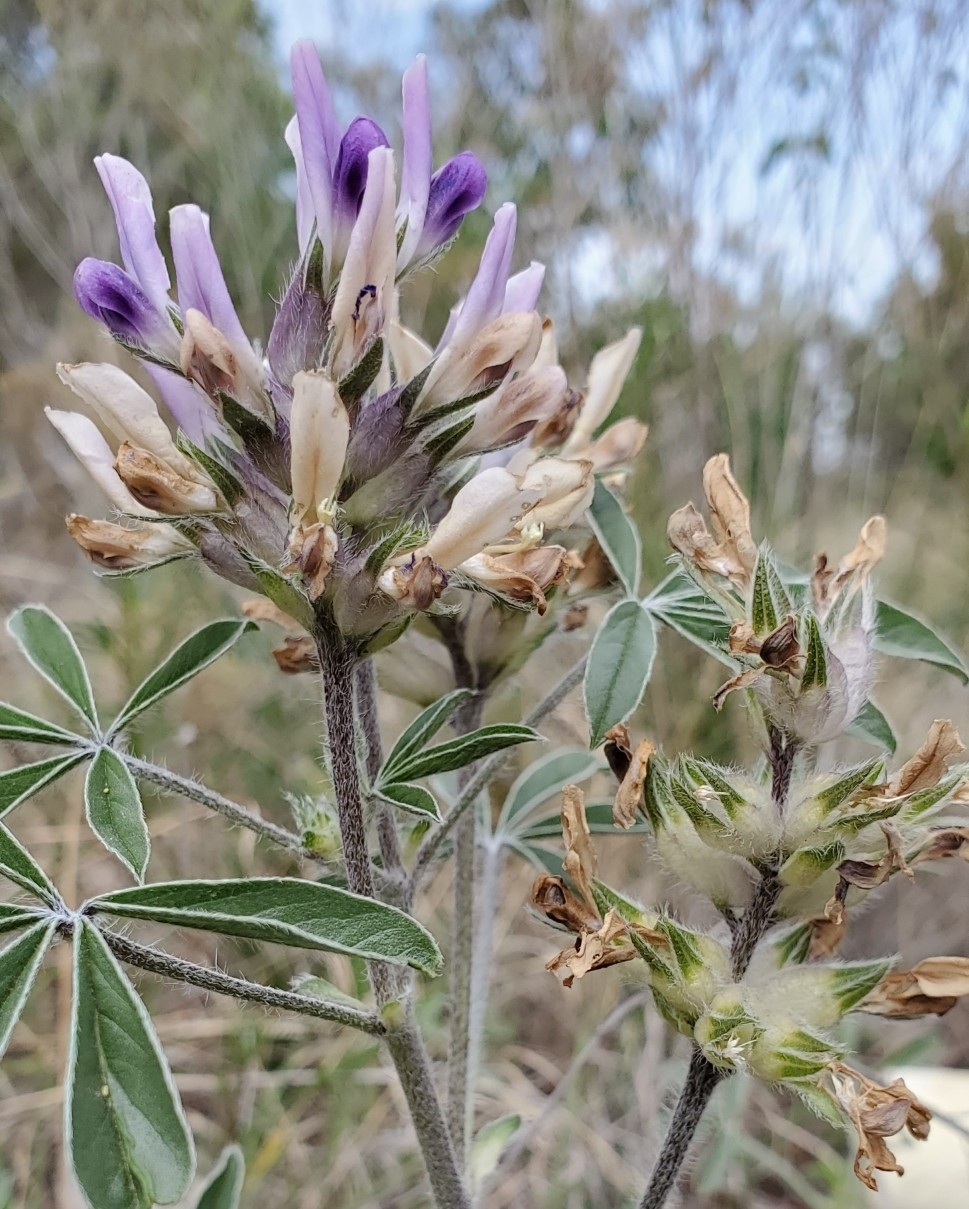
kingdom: Plantae
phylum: Tracheophyta
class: Magnoliopsida
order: Fabales
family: Fabaceae
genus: Pediomelum
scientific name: Pediomelum latestipulatum
